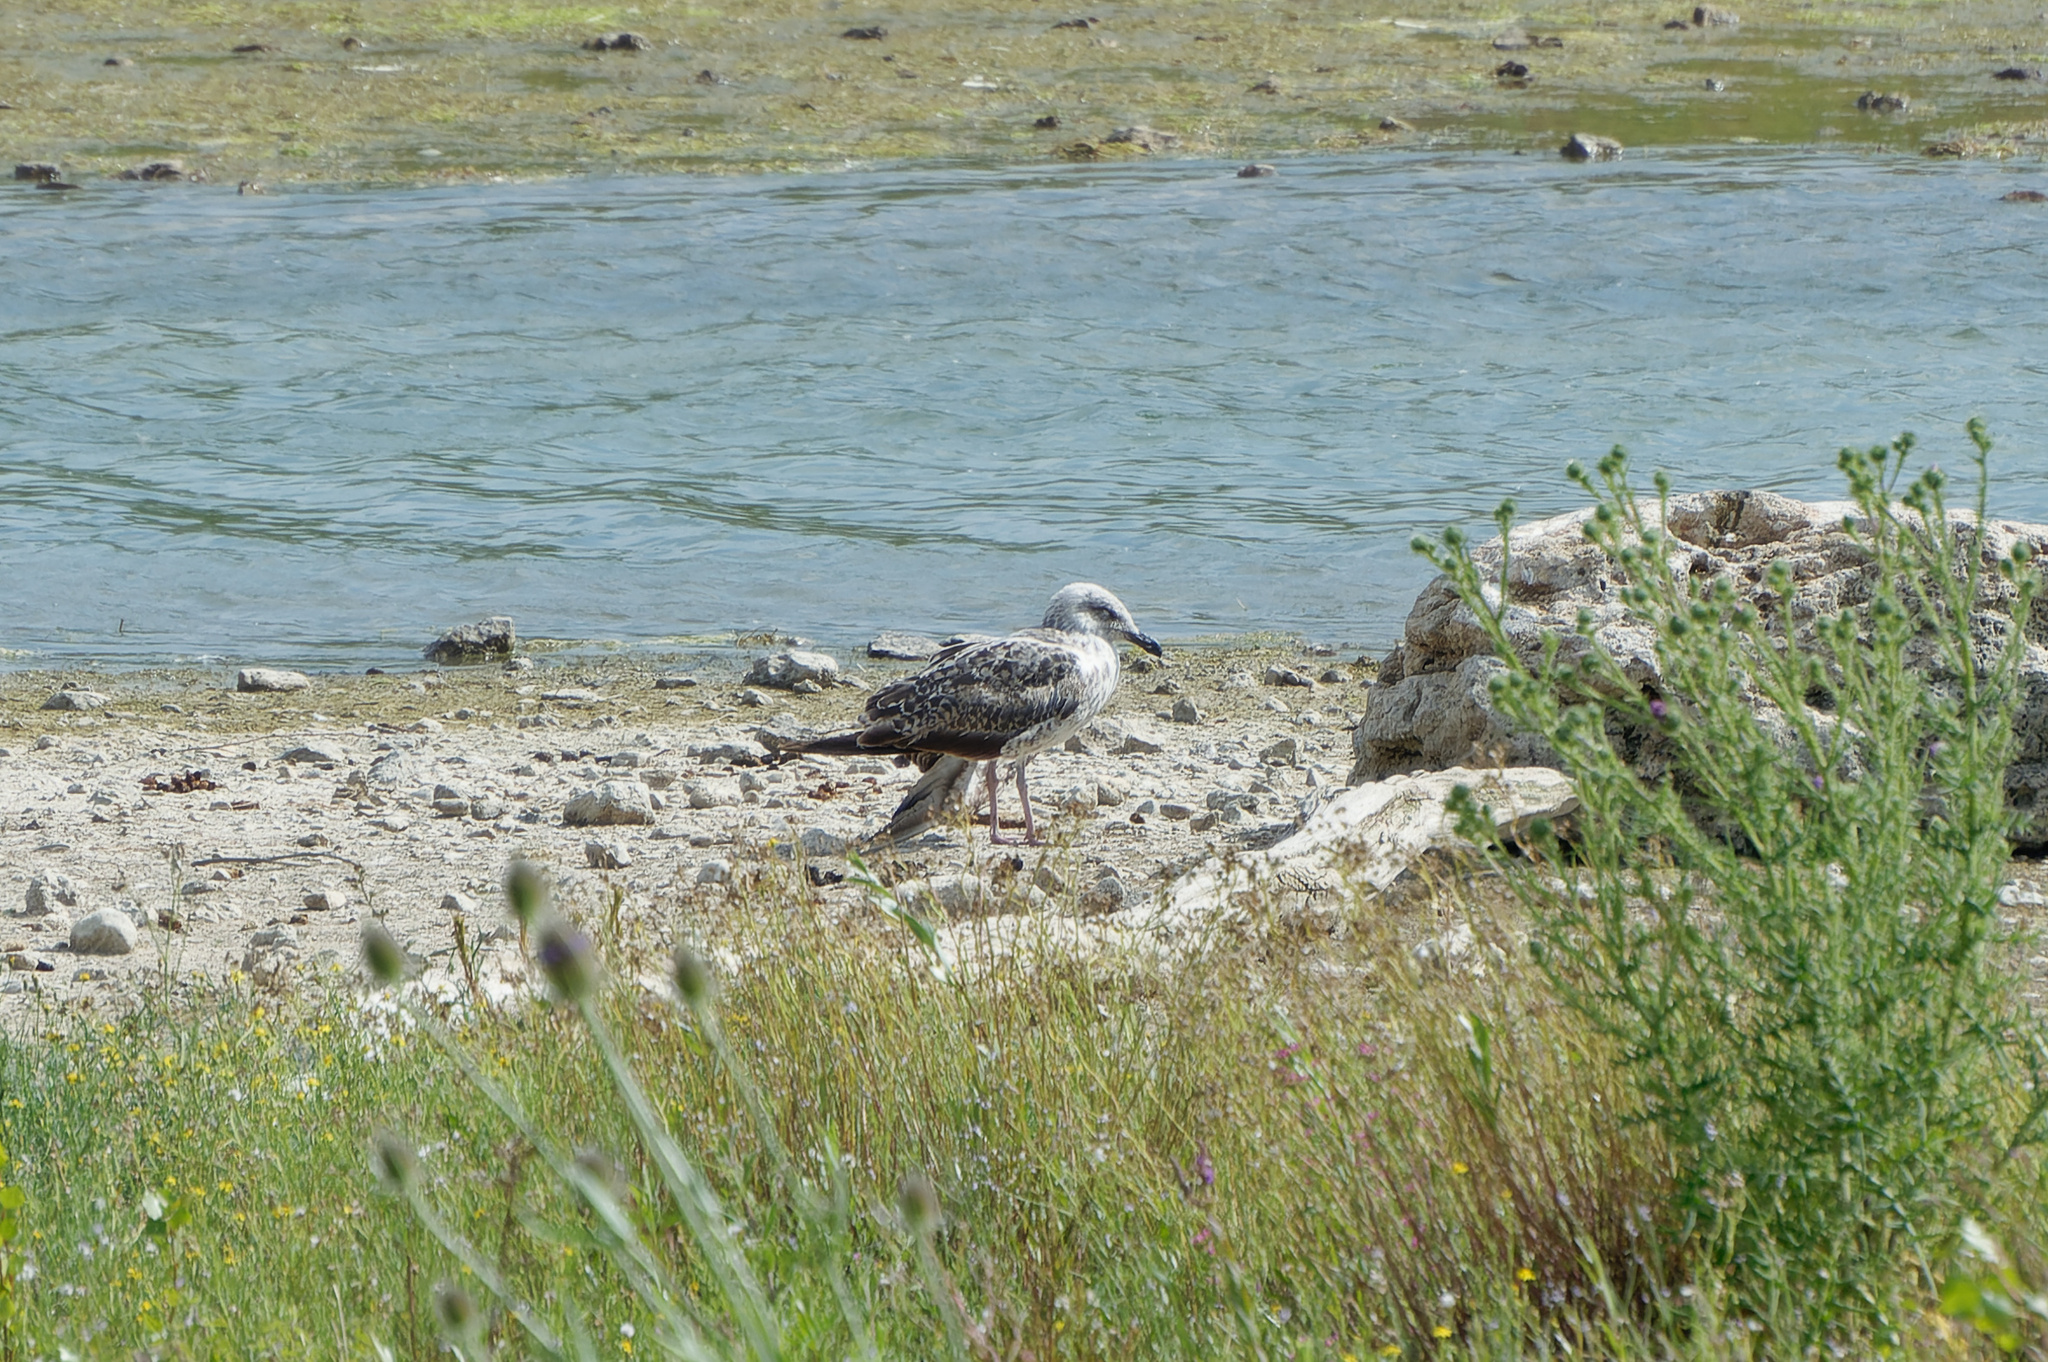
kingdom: Animalia
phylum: Chordata
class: Aves
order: Charadriiformes
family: Laridae
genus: Larus
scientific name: Larus michahellis
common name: Yellow-legged gull
